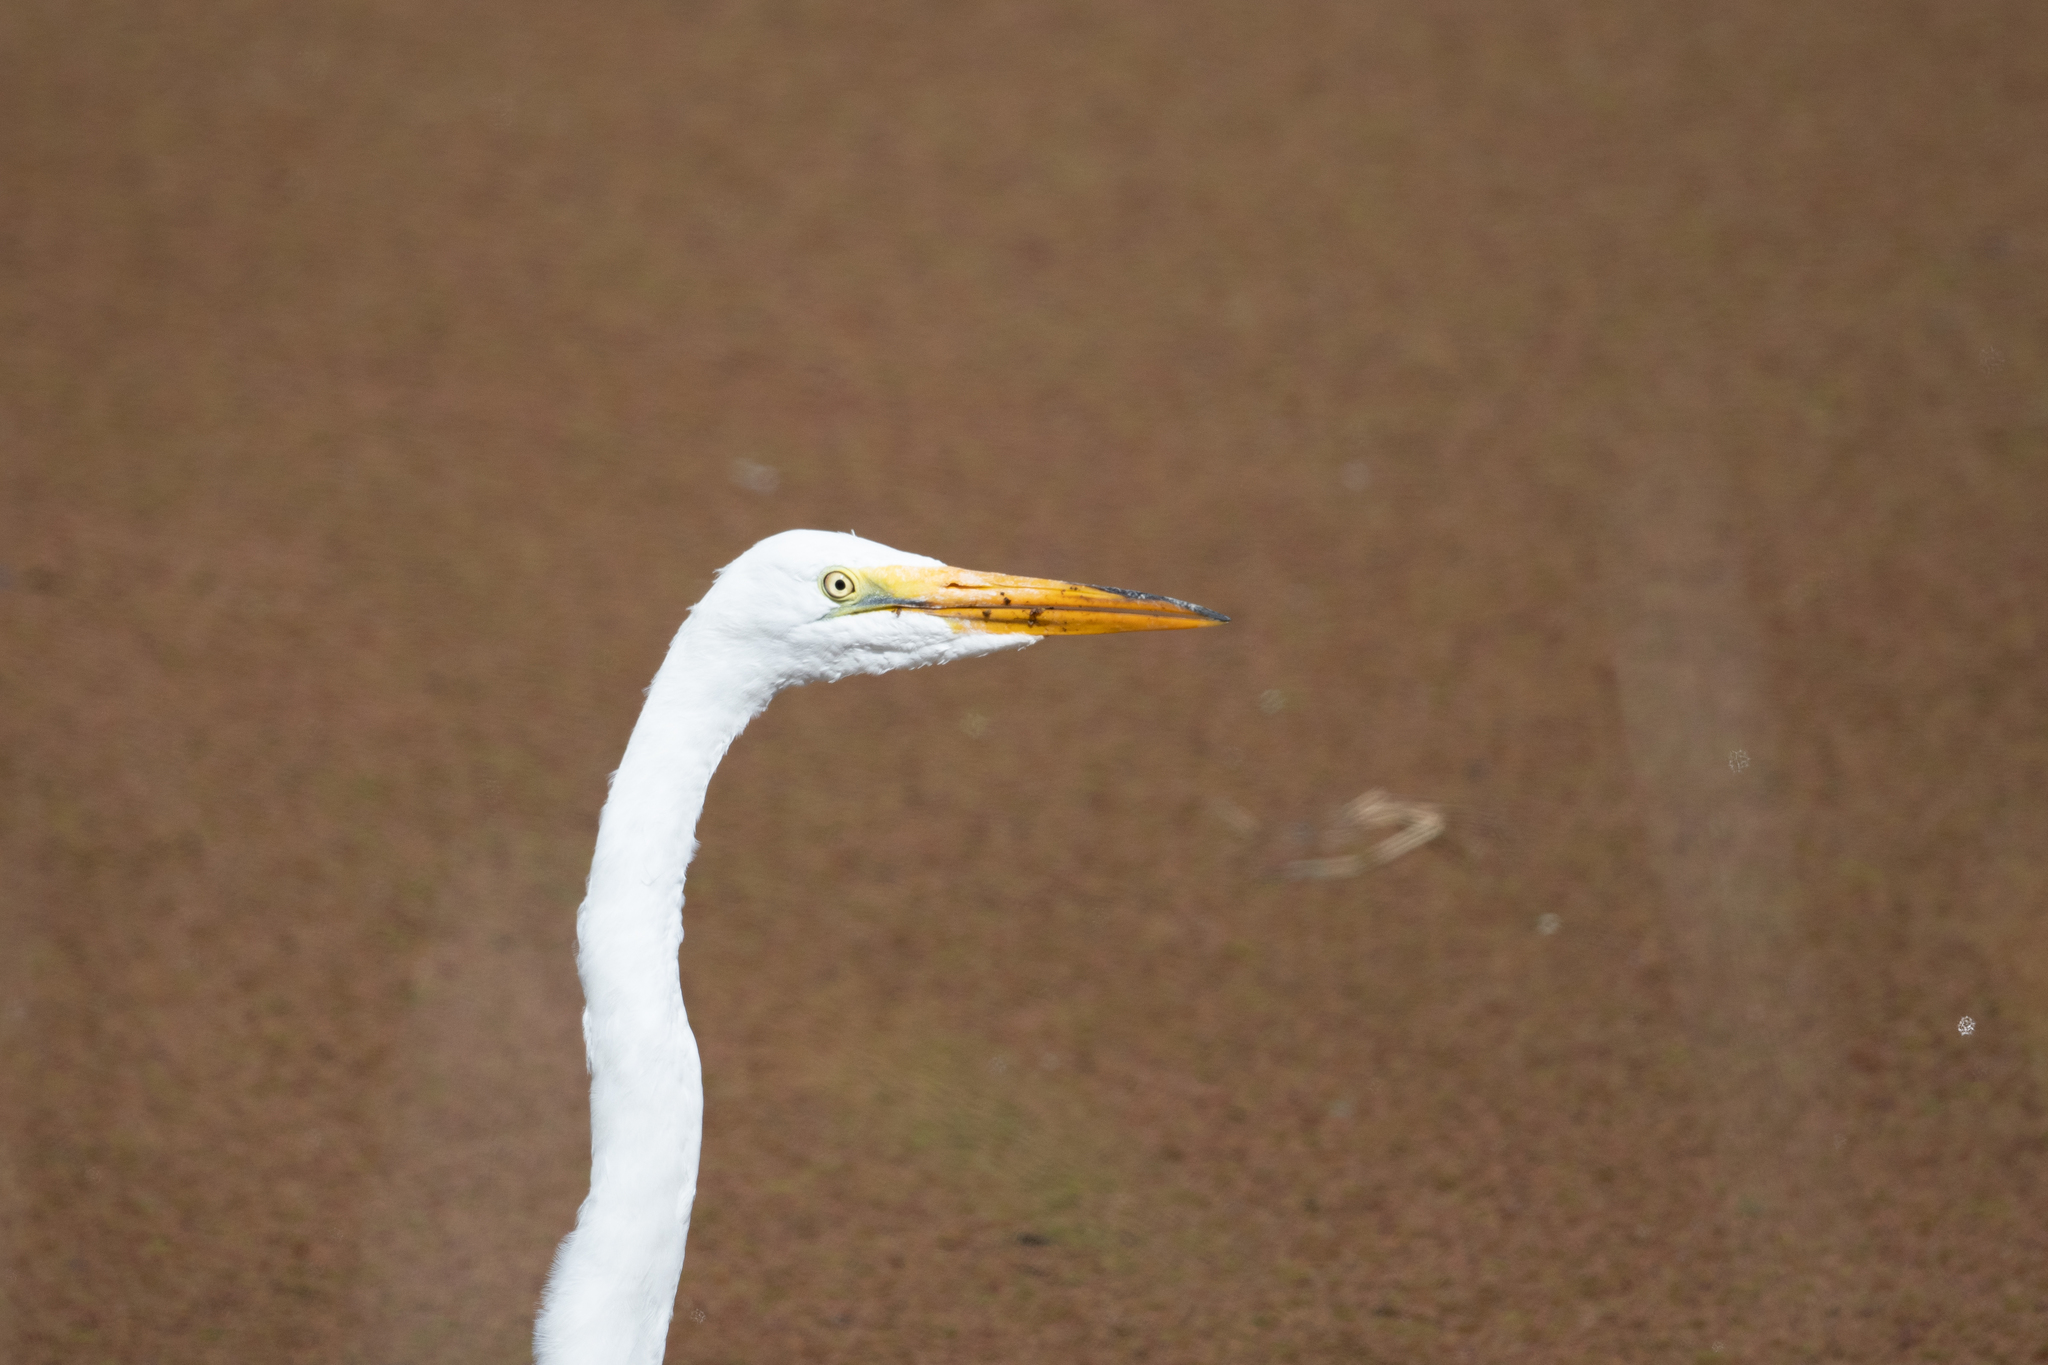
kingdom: Animalia
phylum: Chordata
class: Aves
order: Pelecaniformes
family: Ardeidae
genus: Ardea
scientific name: Ardea alba
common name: Great egret
